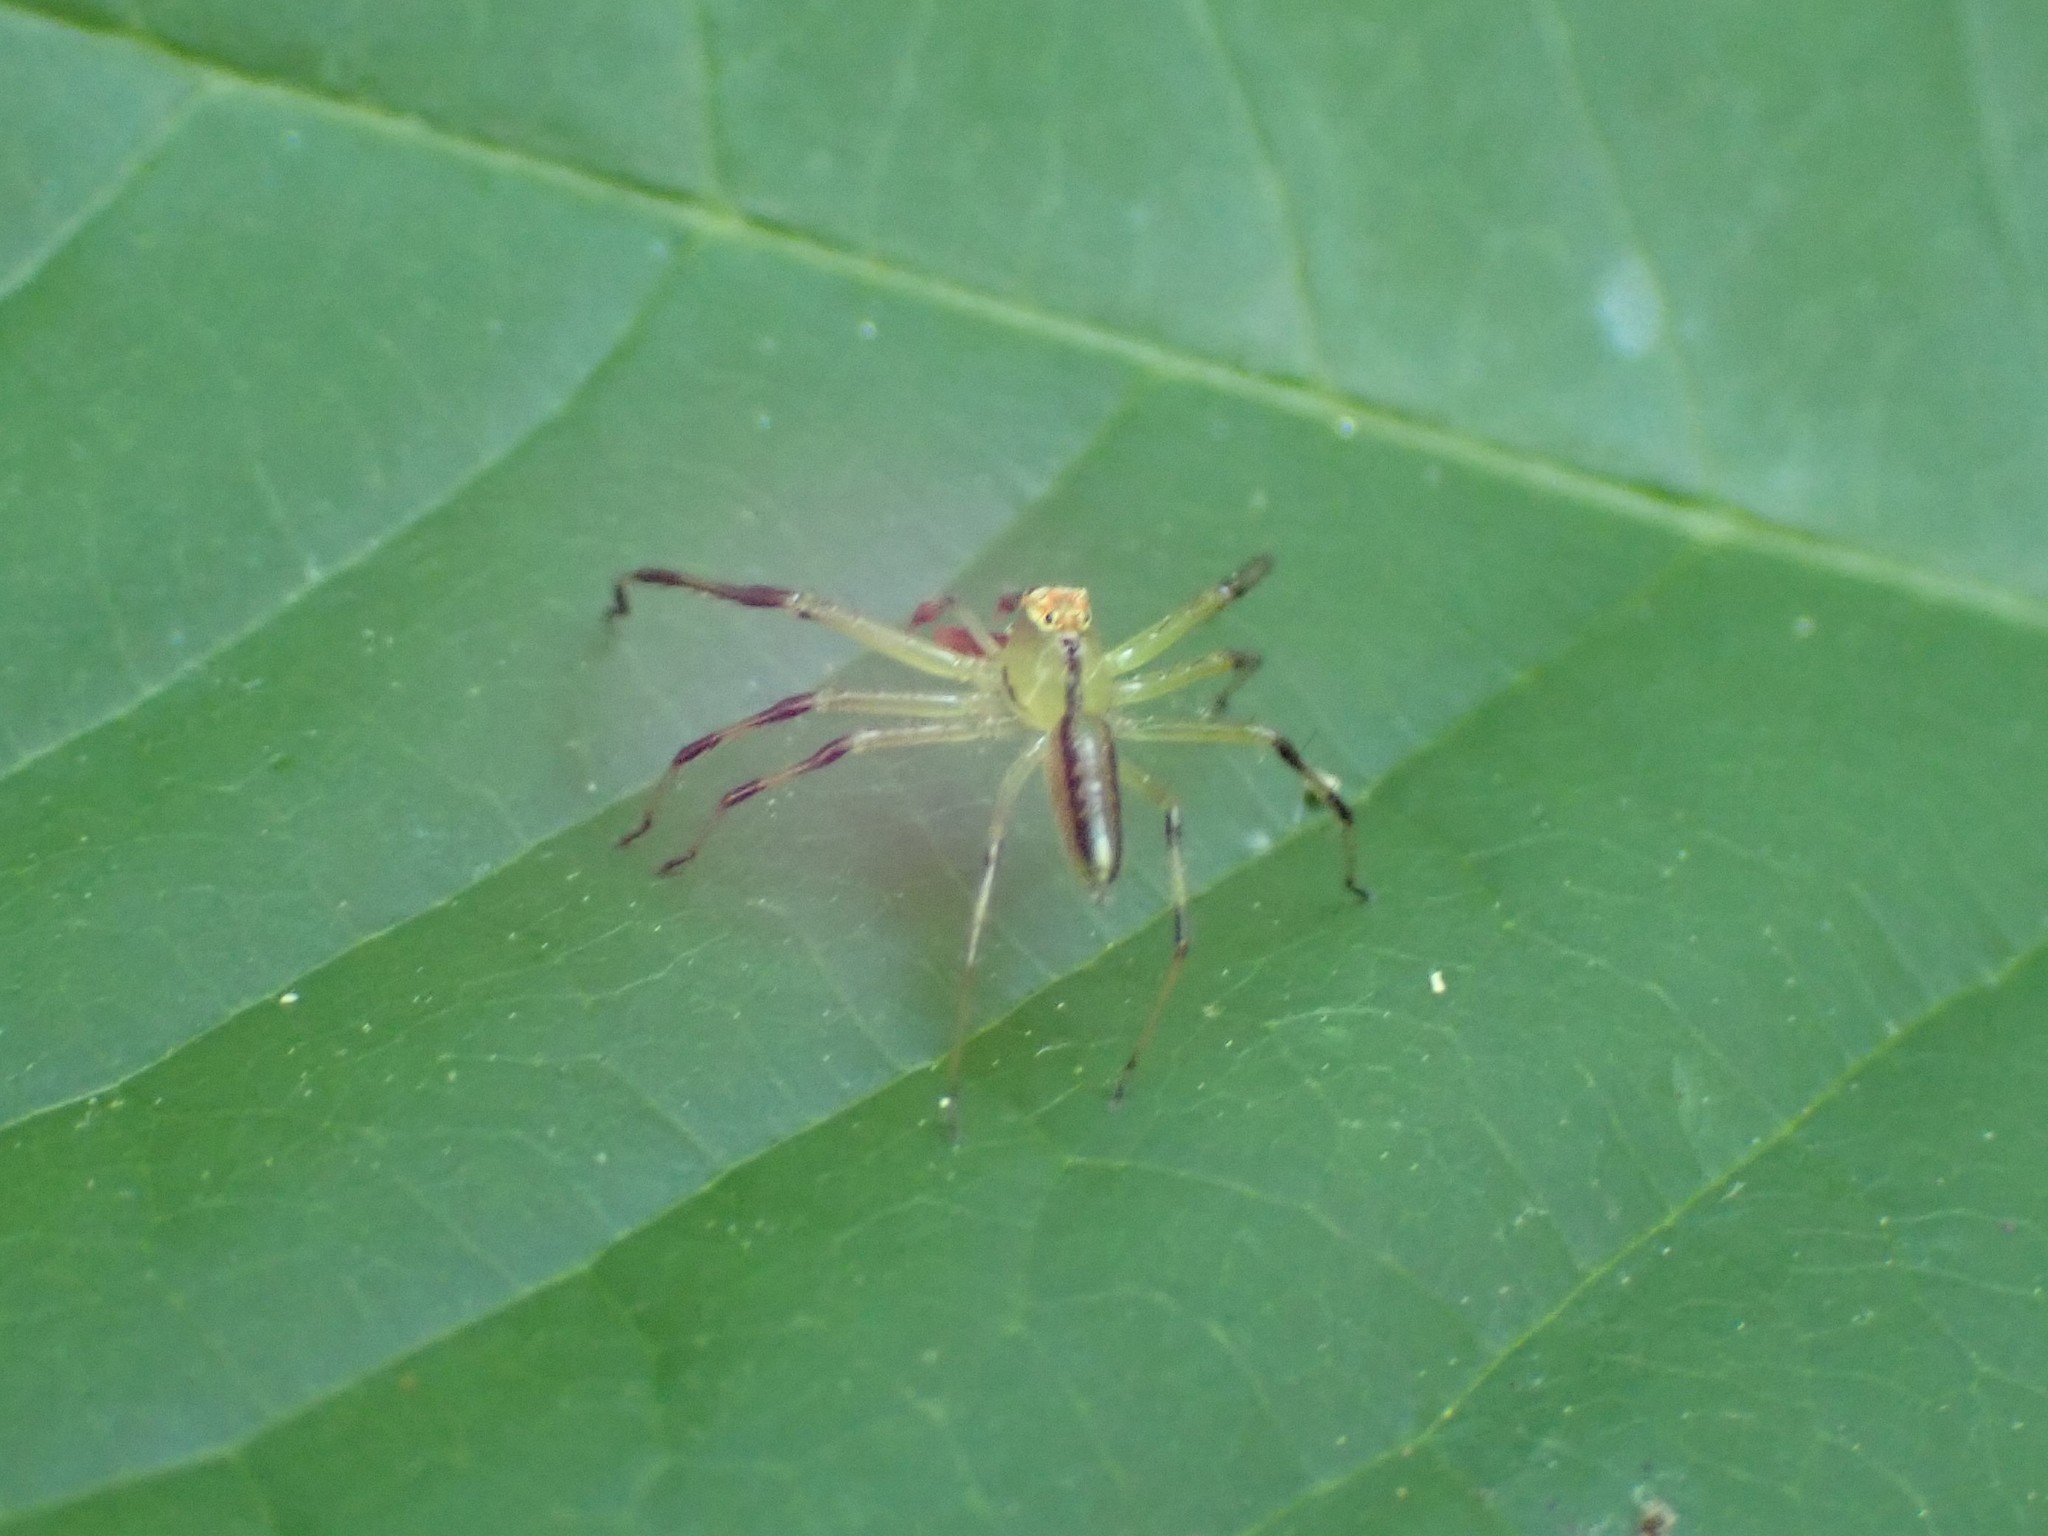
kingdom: Animalia
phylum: Arthropoda
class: Arachnida
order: Araneae
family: Salticidae
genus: Lyssomanes
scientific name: Lyssomanes viridis
